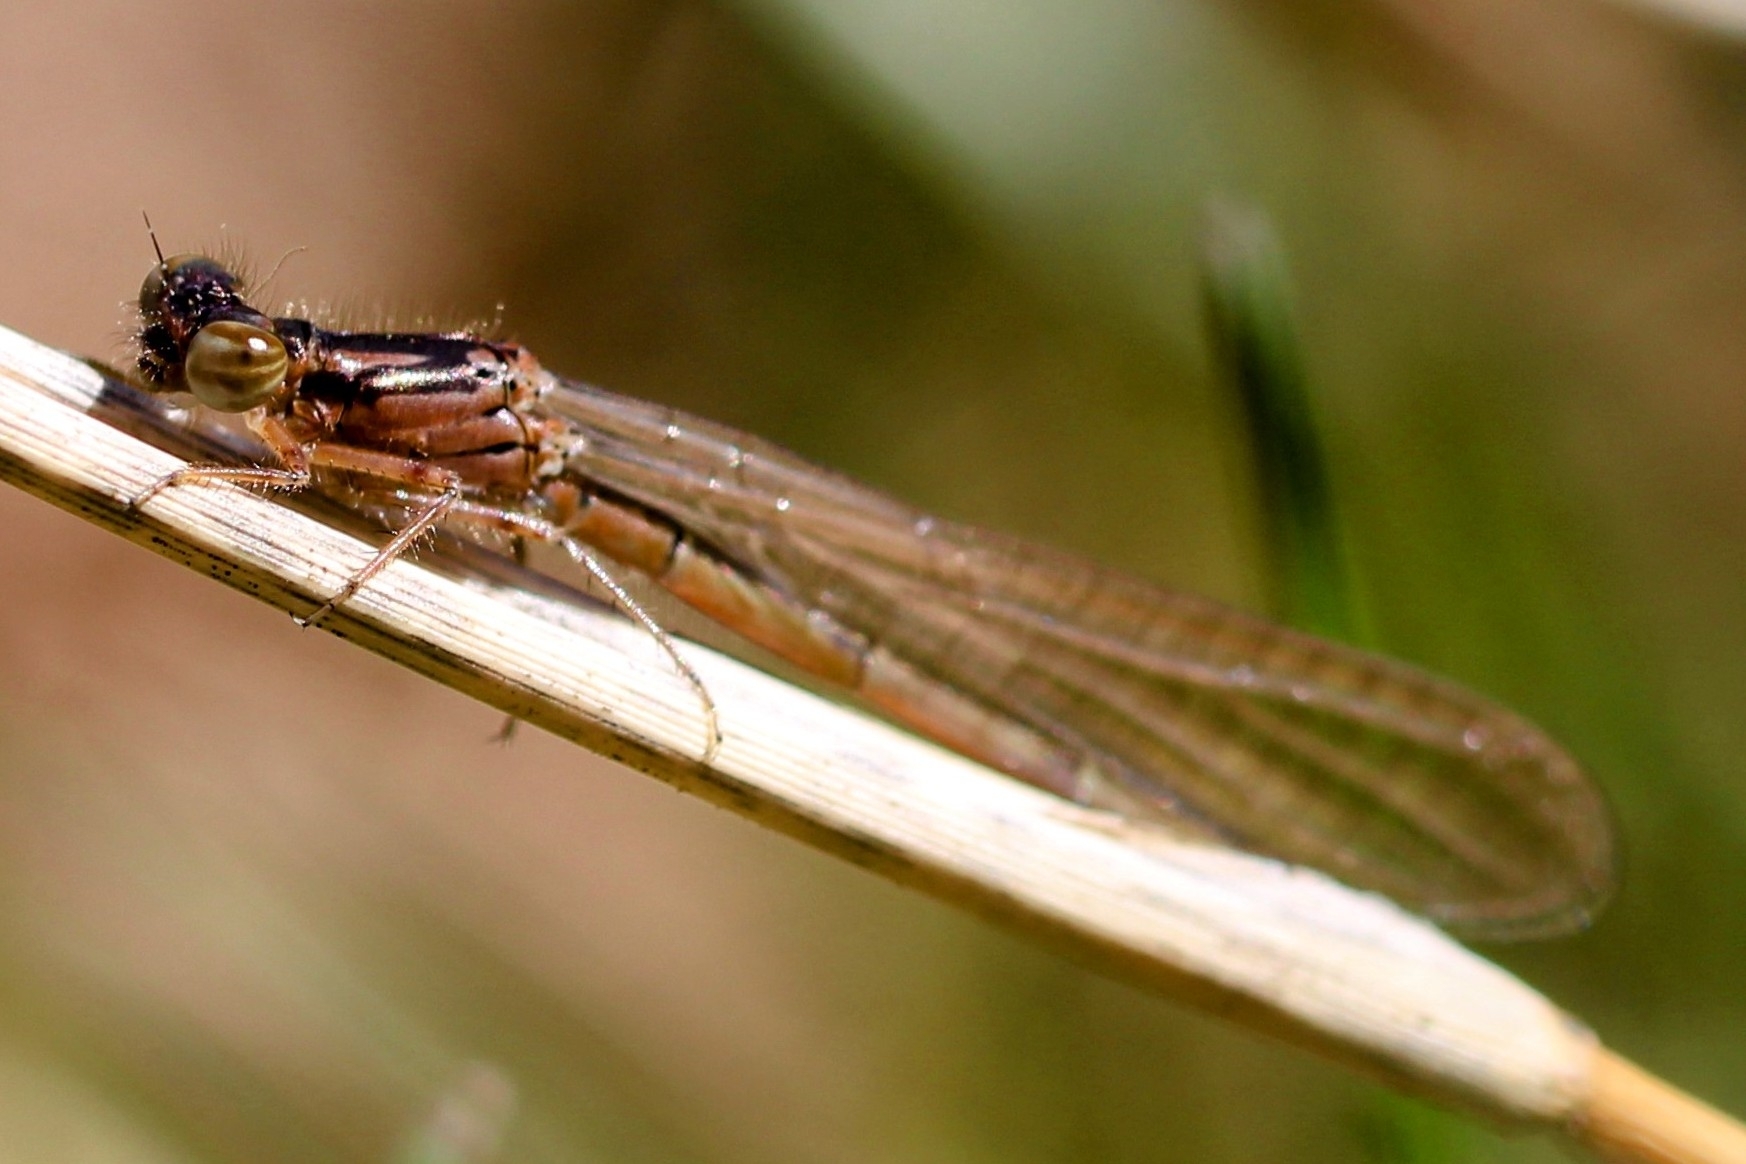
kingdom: Animalia
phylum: Arthropoda
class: Insecta
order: Odonata
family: Coenagrionidae
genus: Ischnura
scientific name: Ischnura posita
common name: Fragile forktail
